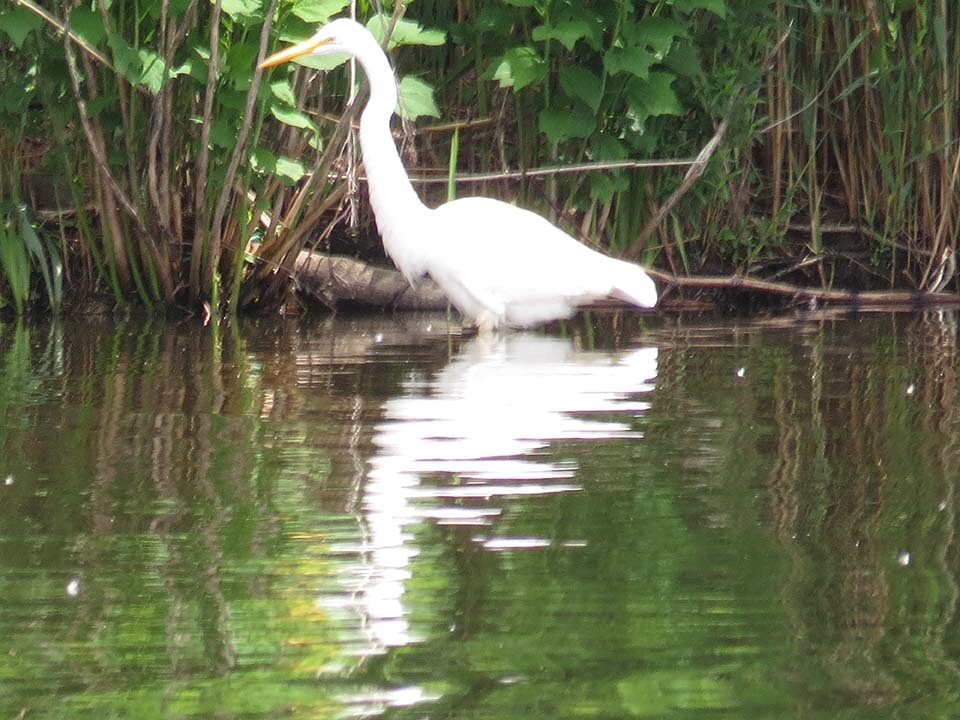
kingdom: Animalia
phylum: Chordata
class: Aves
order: Pelecaniformes
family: Ardeidae
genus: Ardea
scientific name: Ardea alba
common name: Great egret
